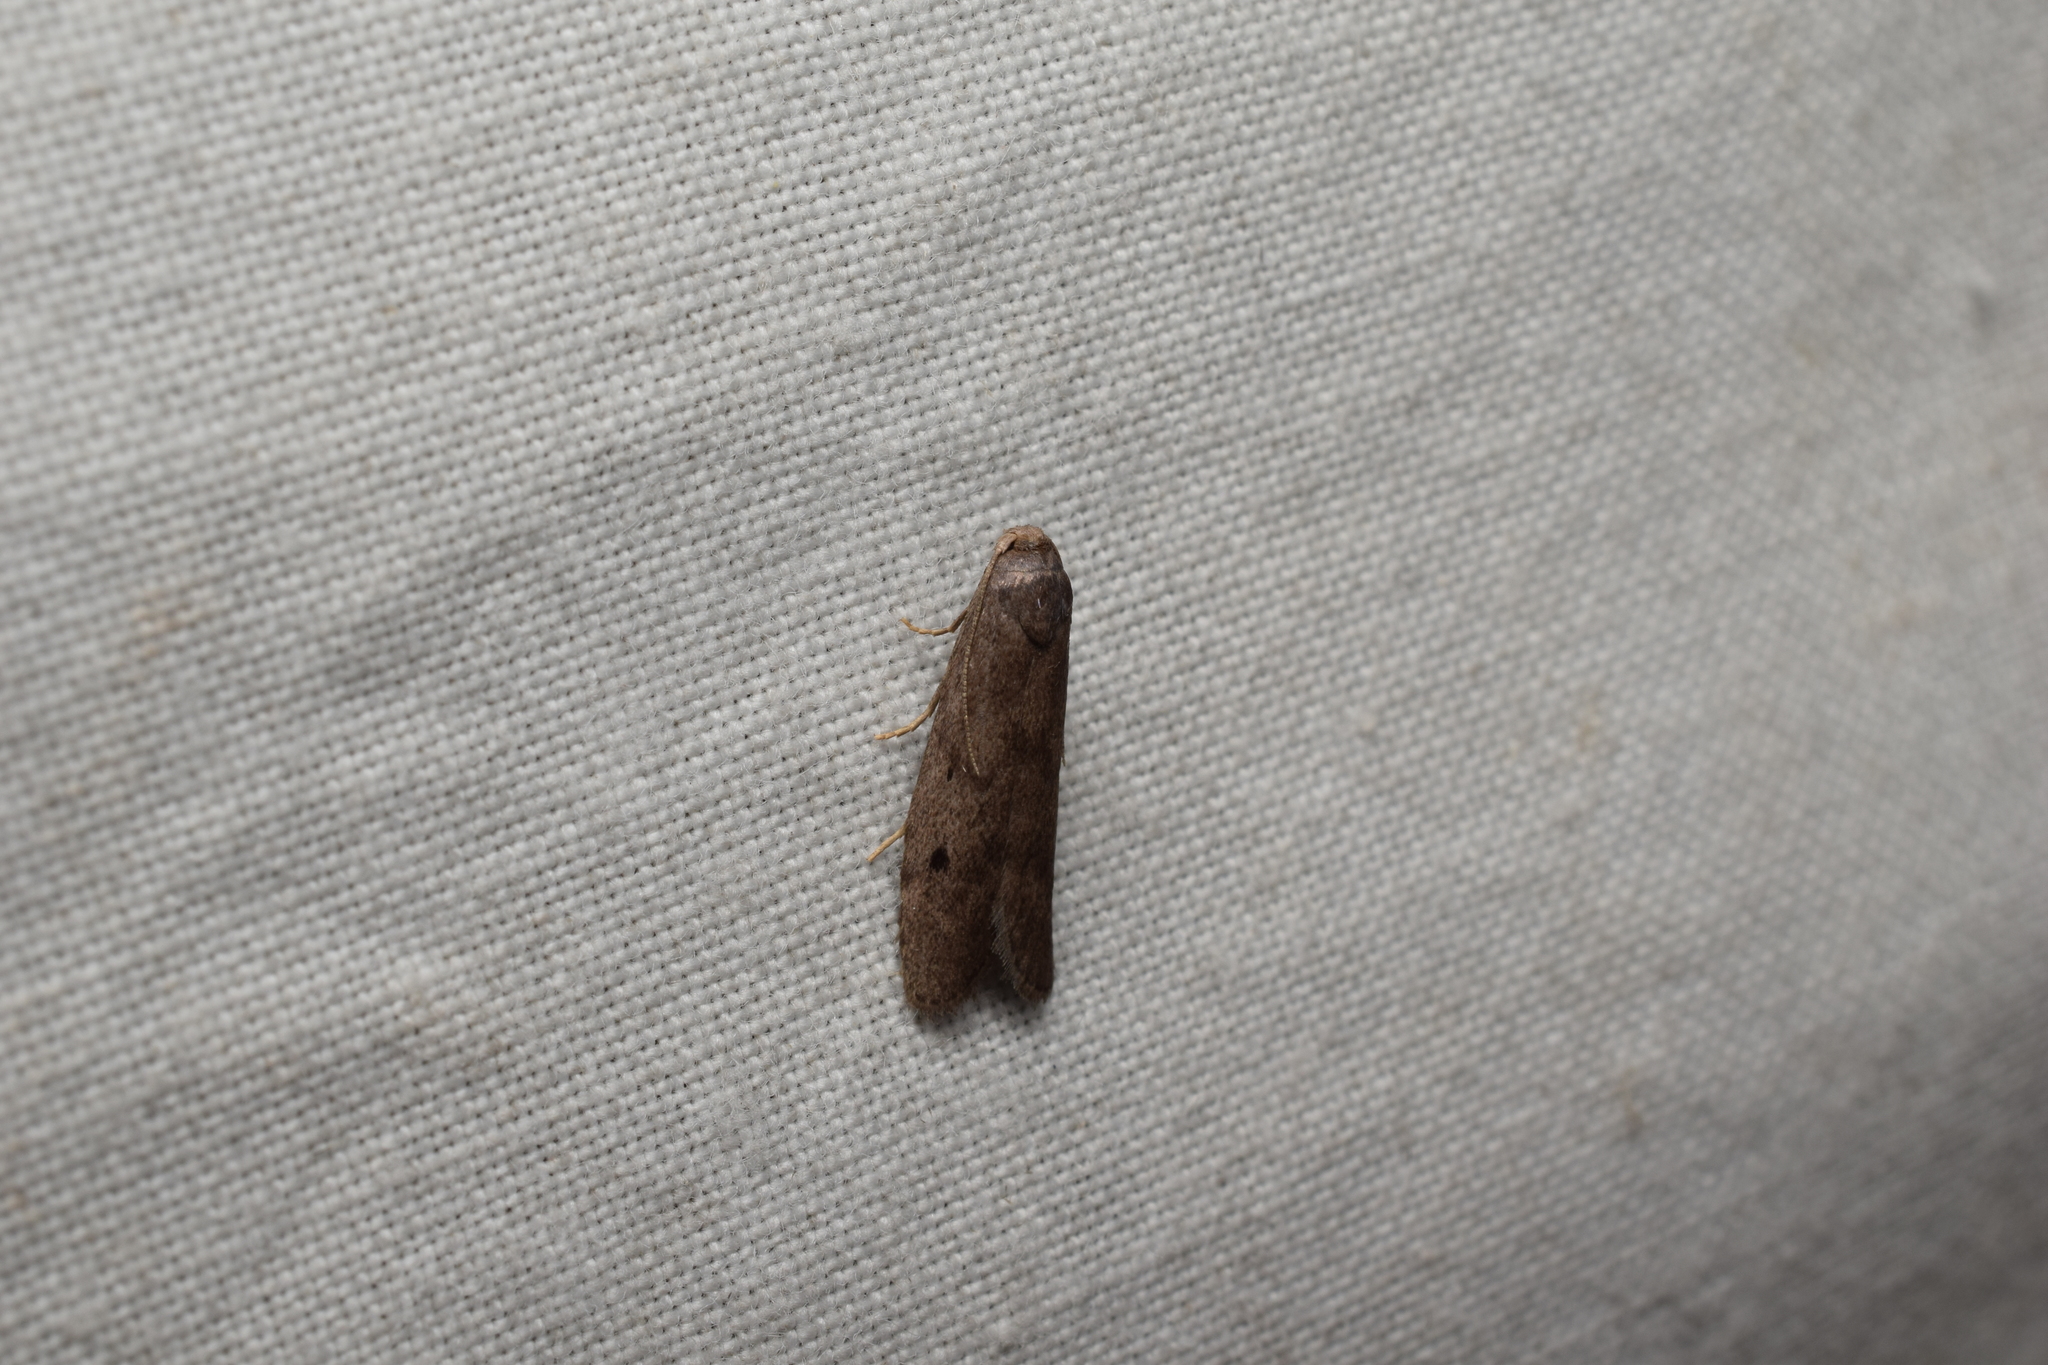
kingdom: Animalia
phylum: Arthropoda
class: Insecta
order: Lepidoptera
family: Pyralidae
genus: Aphomia
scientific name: Aphomia zelleri
